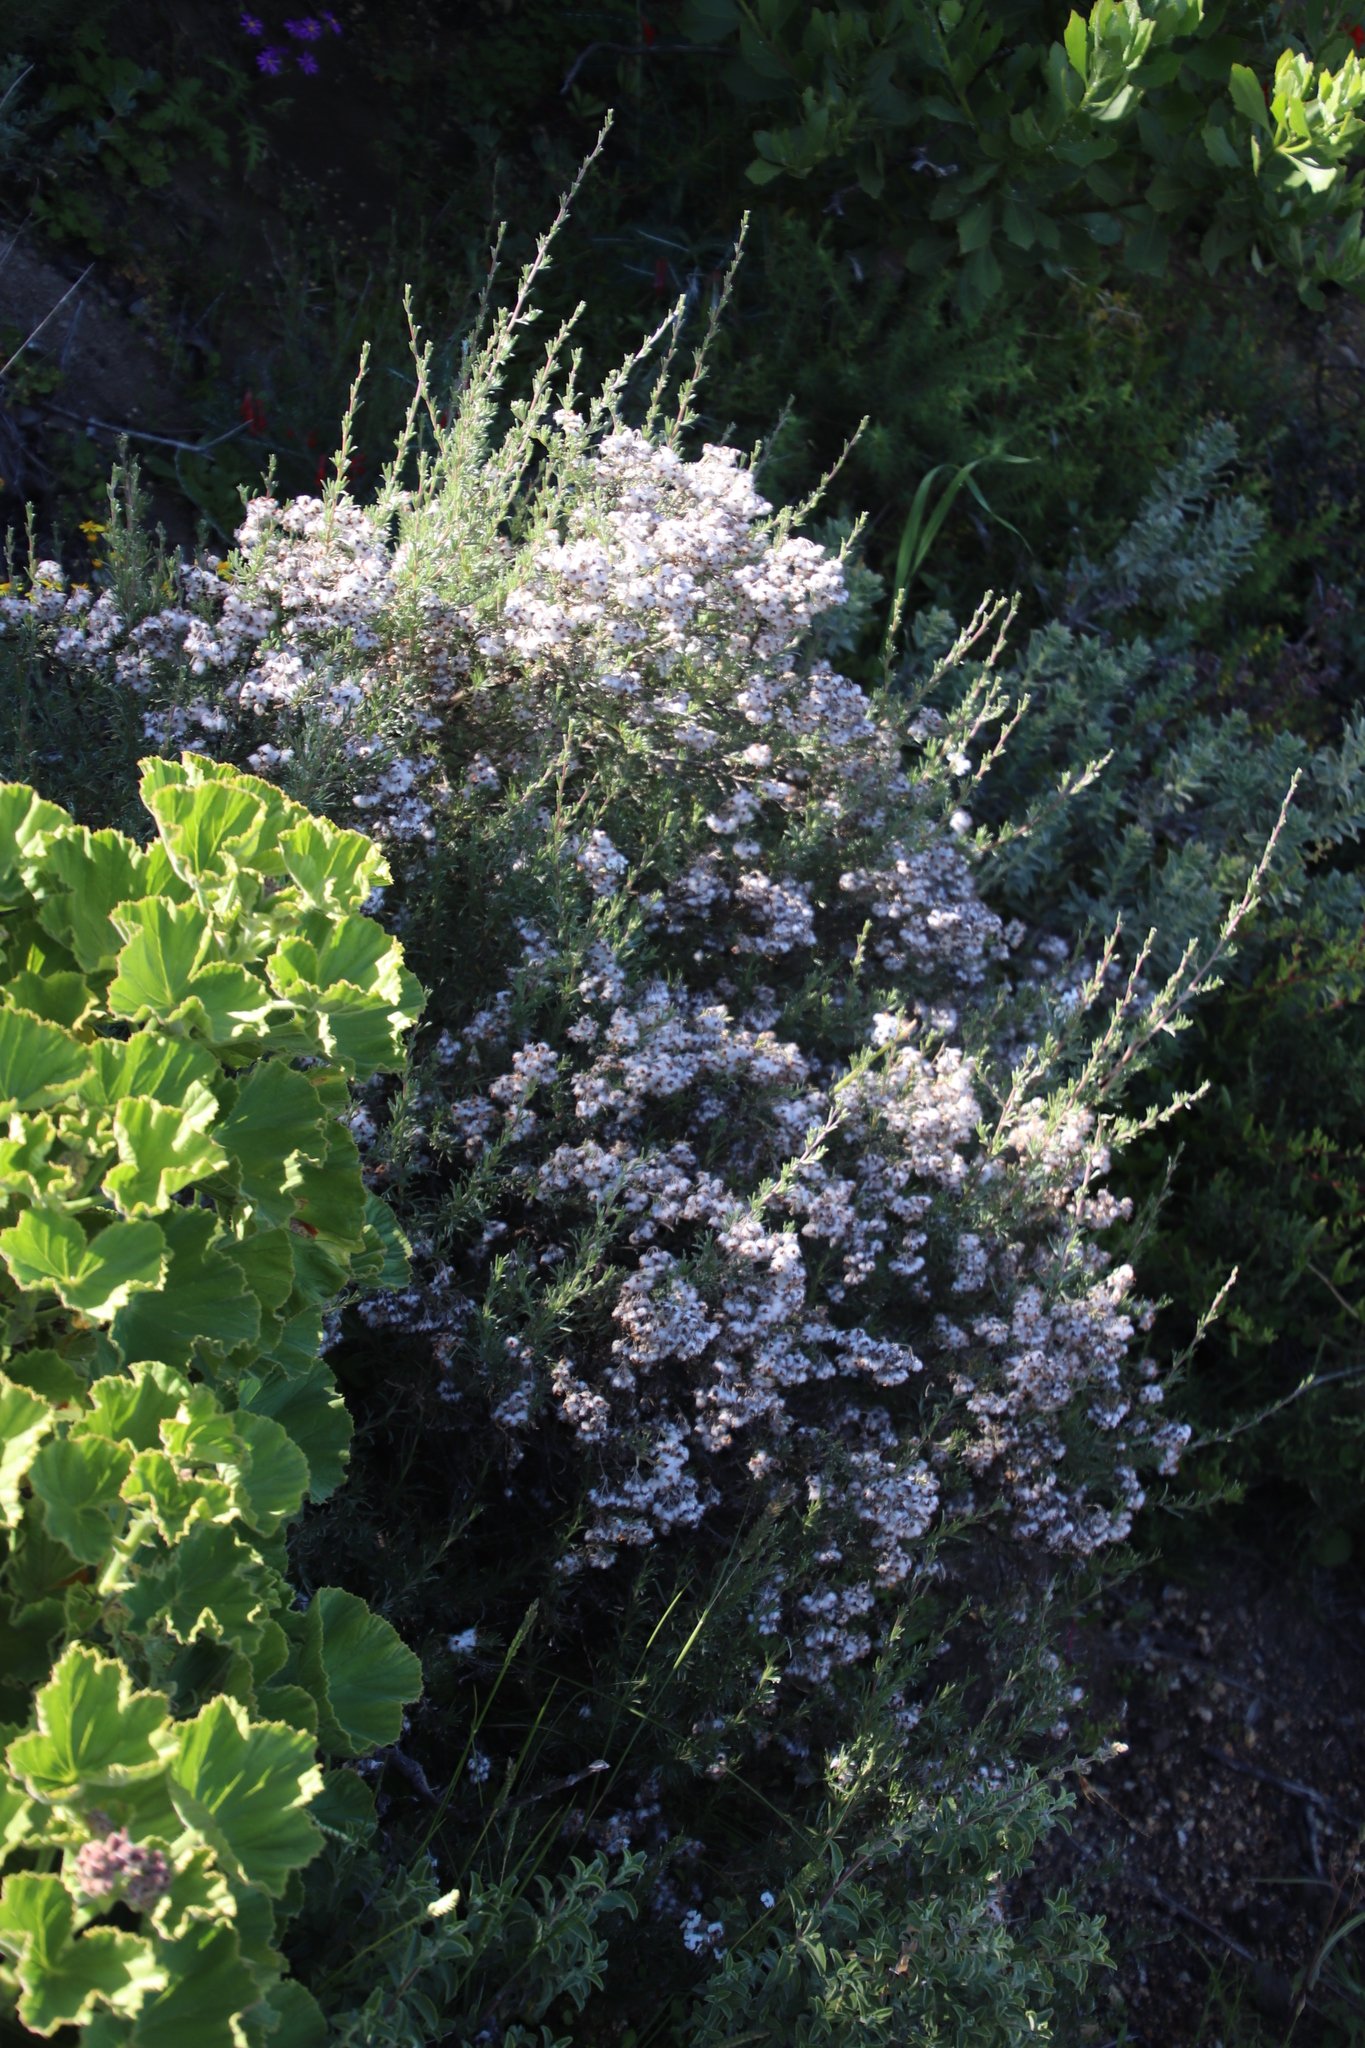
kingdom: Plantae
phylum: Tracheophyta
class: Magnoliopsida
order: Asterales
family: Asteraceae
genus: Eriocephalus
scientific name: Eriocephalus africanus
